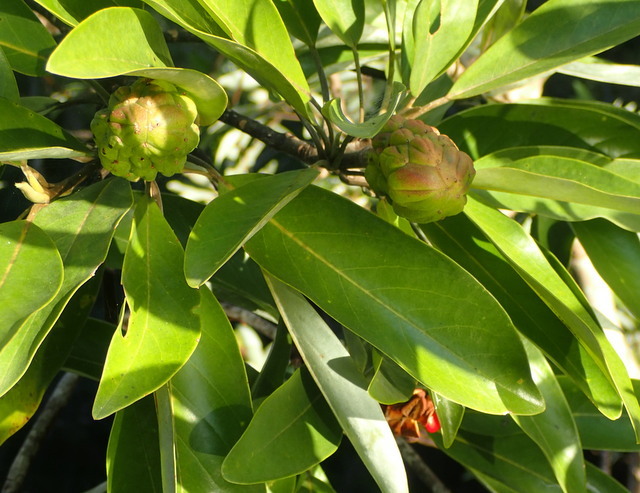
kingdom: Plantae
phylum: Tracheophyta
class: Magnoliopsida
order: Magnoliales
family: Magnoliaceae
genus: Magnolia
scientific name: Magnolia virginiana
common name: Swamp bay
